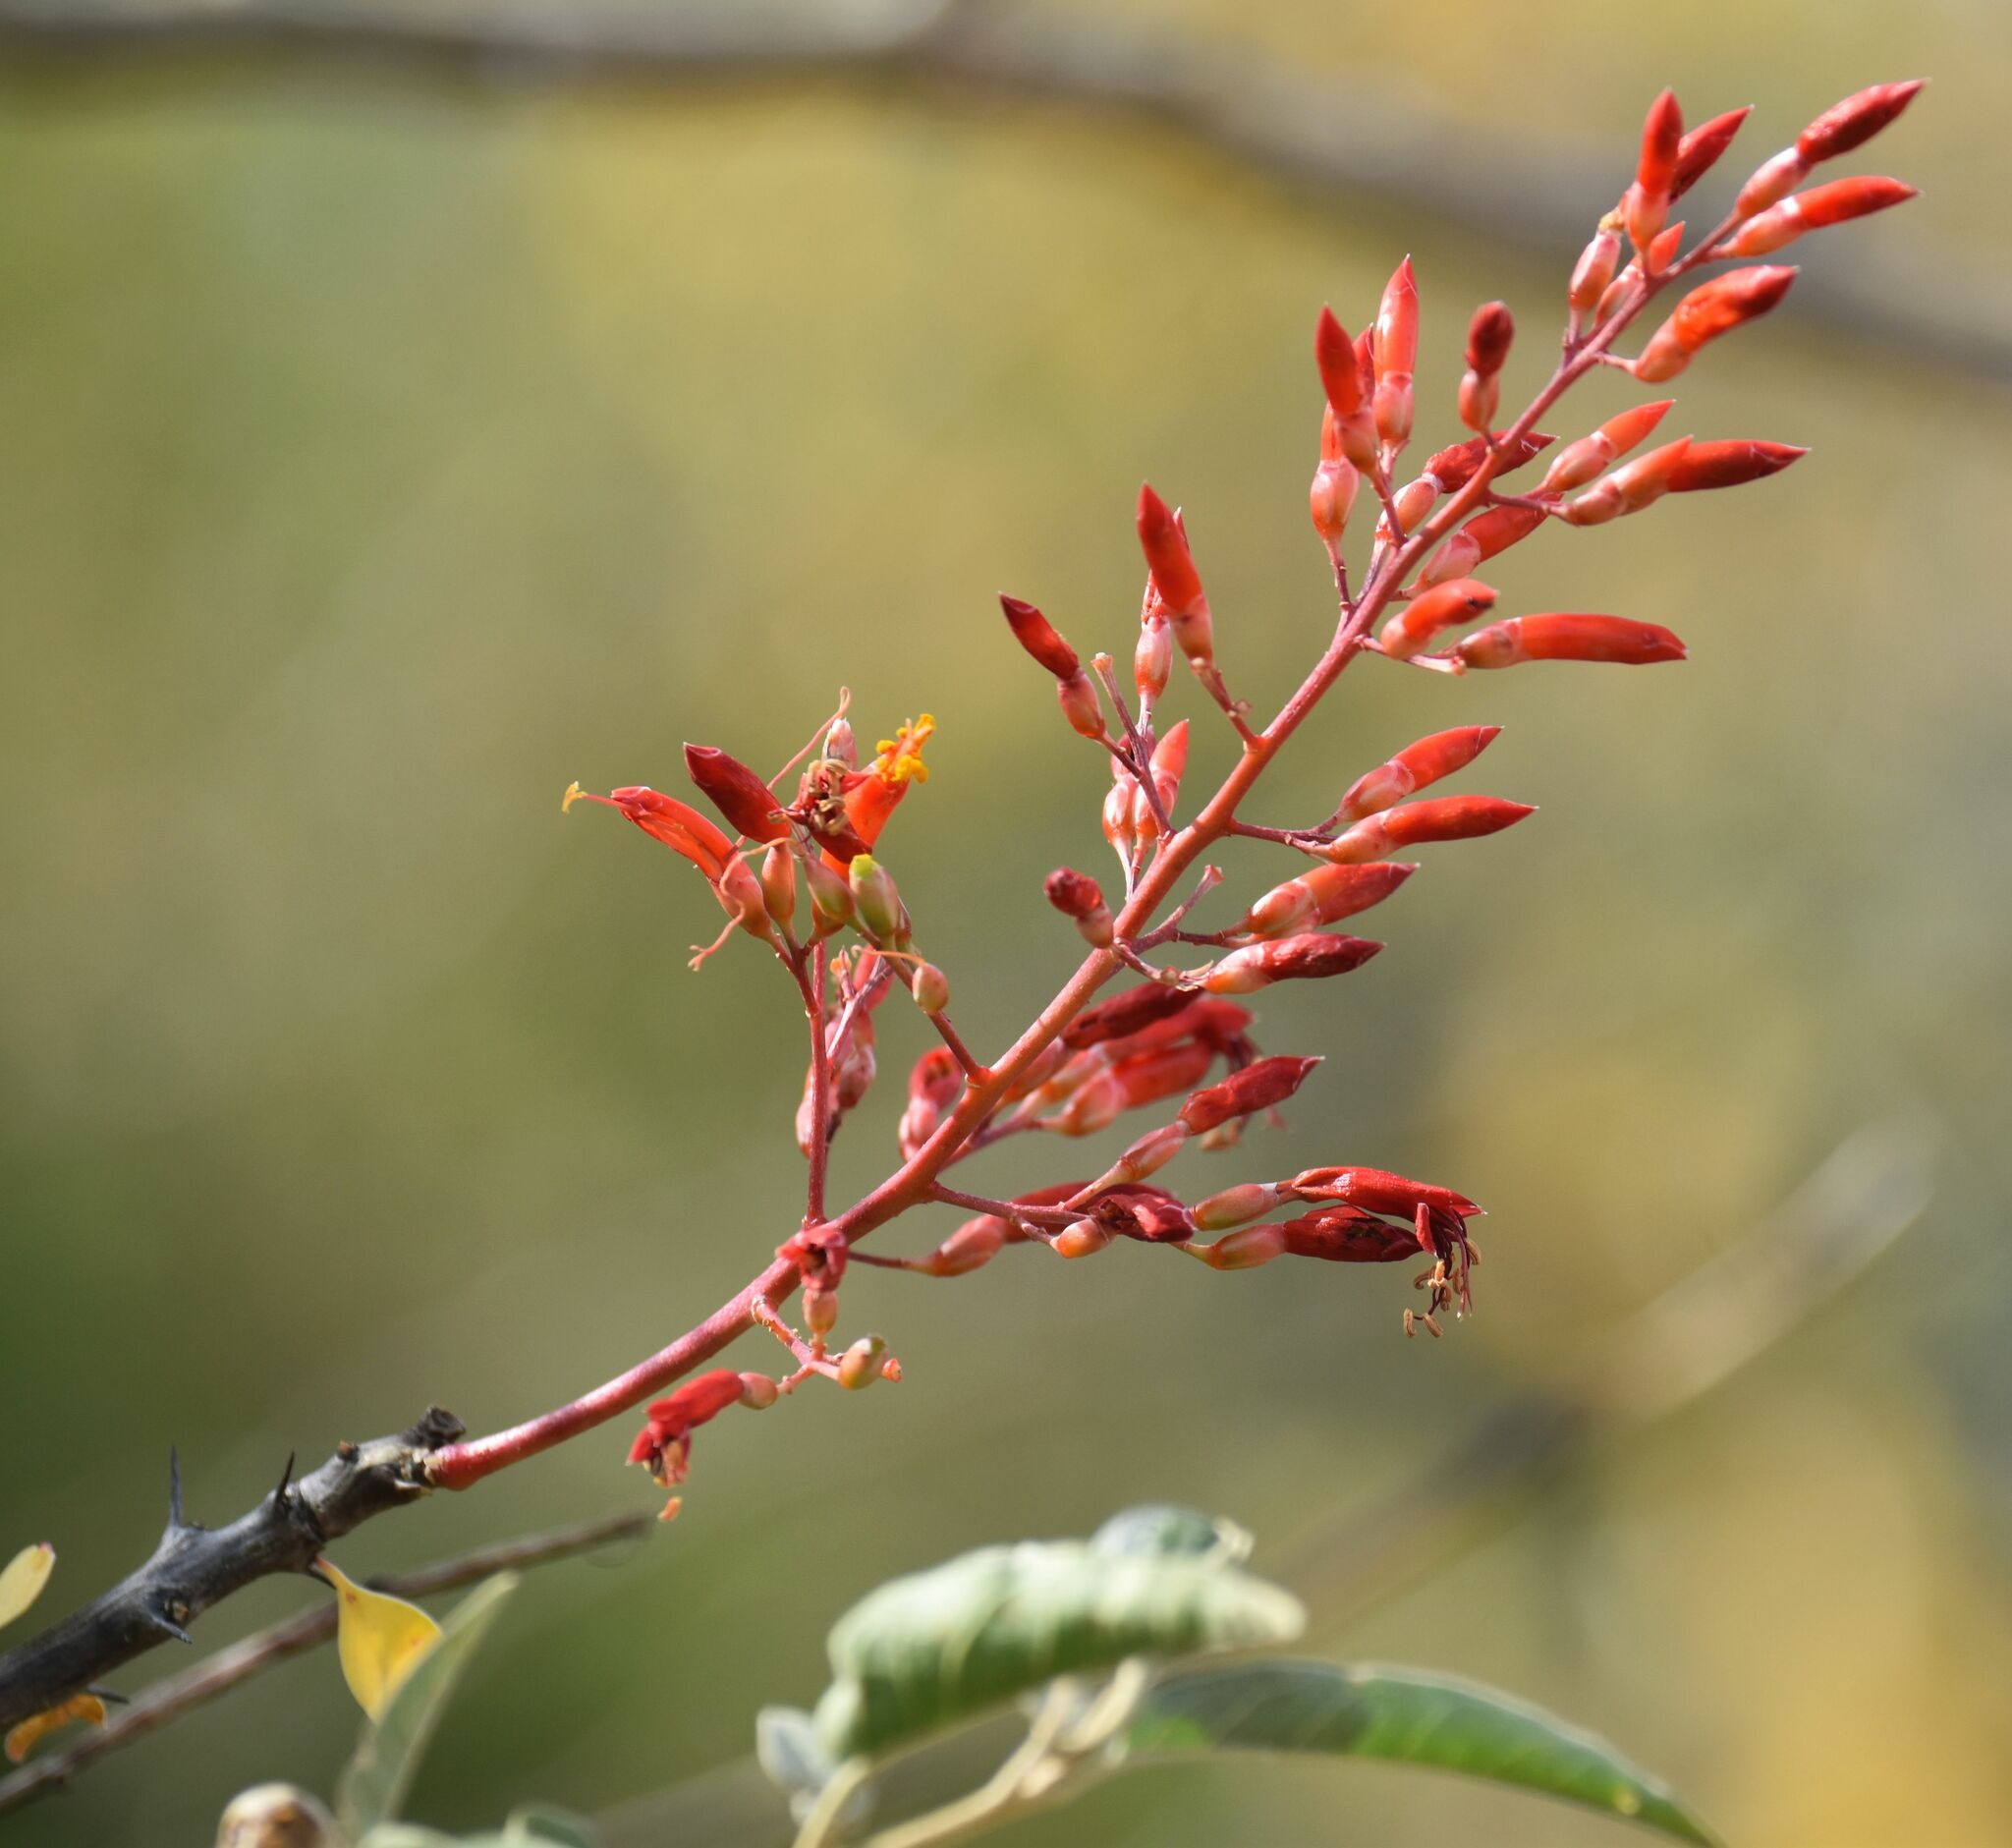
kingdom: Plantae
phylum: Tracheophyta
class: Magnoliopsida
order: Ericales
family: Fouquieriaceae
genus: Fouquieria
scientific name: Fouquieria diguetii
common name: Adam's tree
